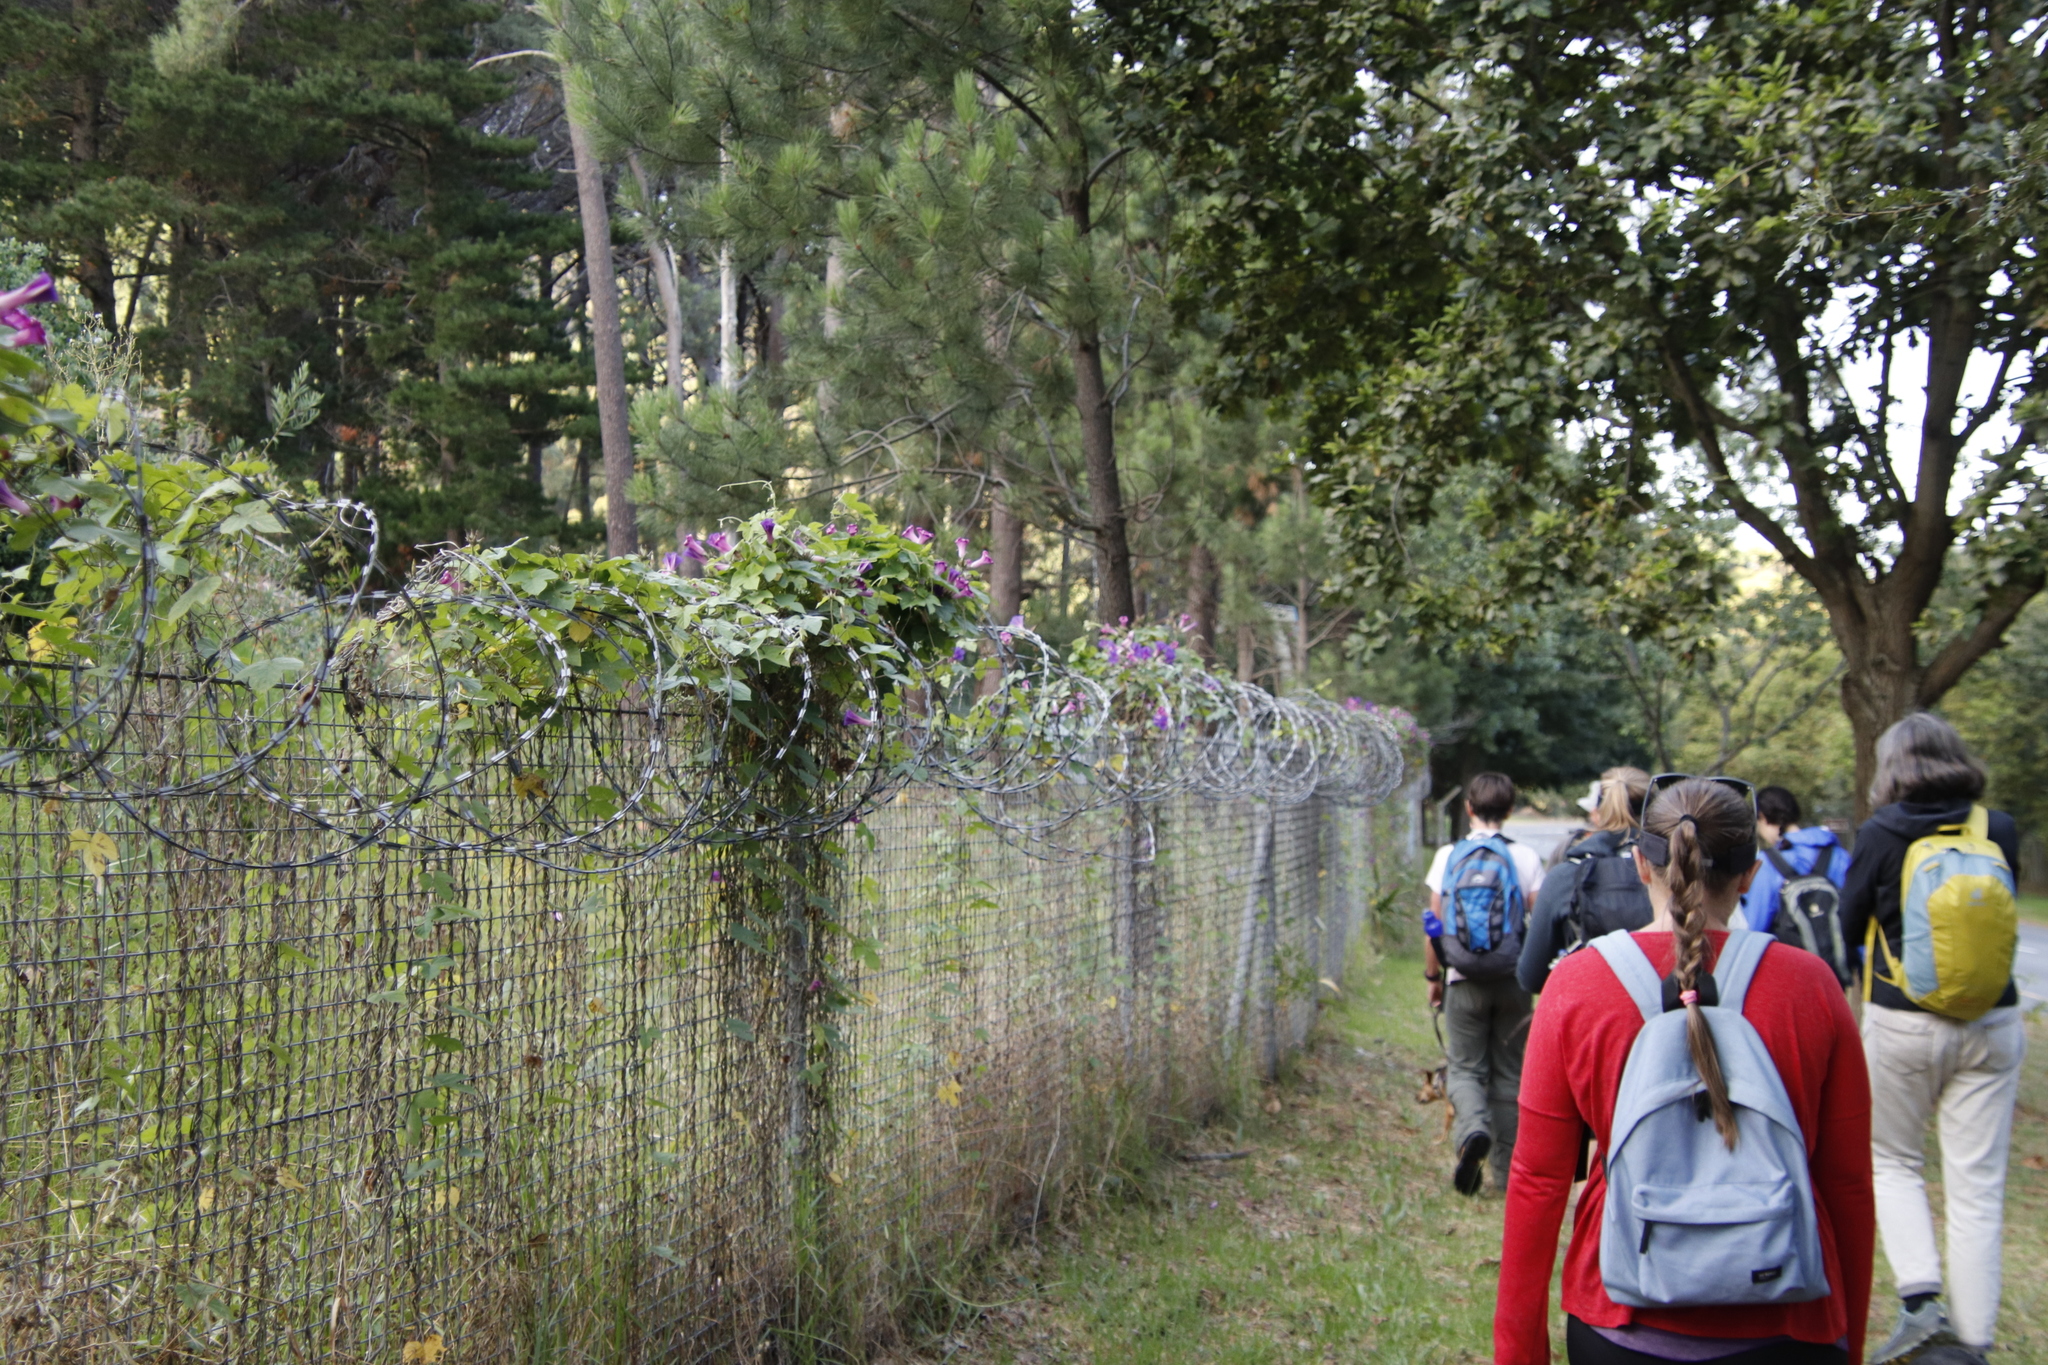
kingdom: Plantae
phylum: Tracheophyta
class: Magnoliopsida
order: Solanales
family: Convolvulaceae
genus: Ipomoea
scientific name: Ipomoea indica
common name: Blue dawnflower
